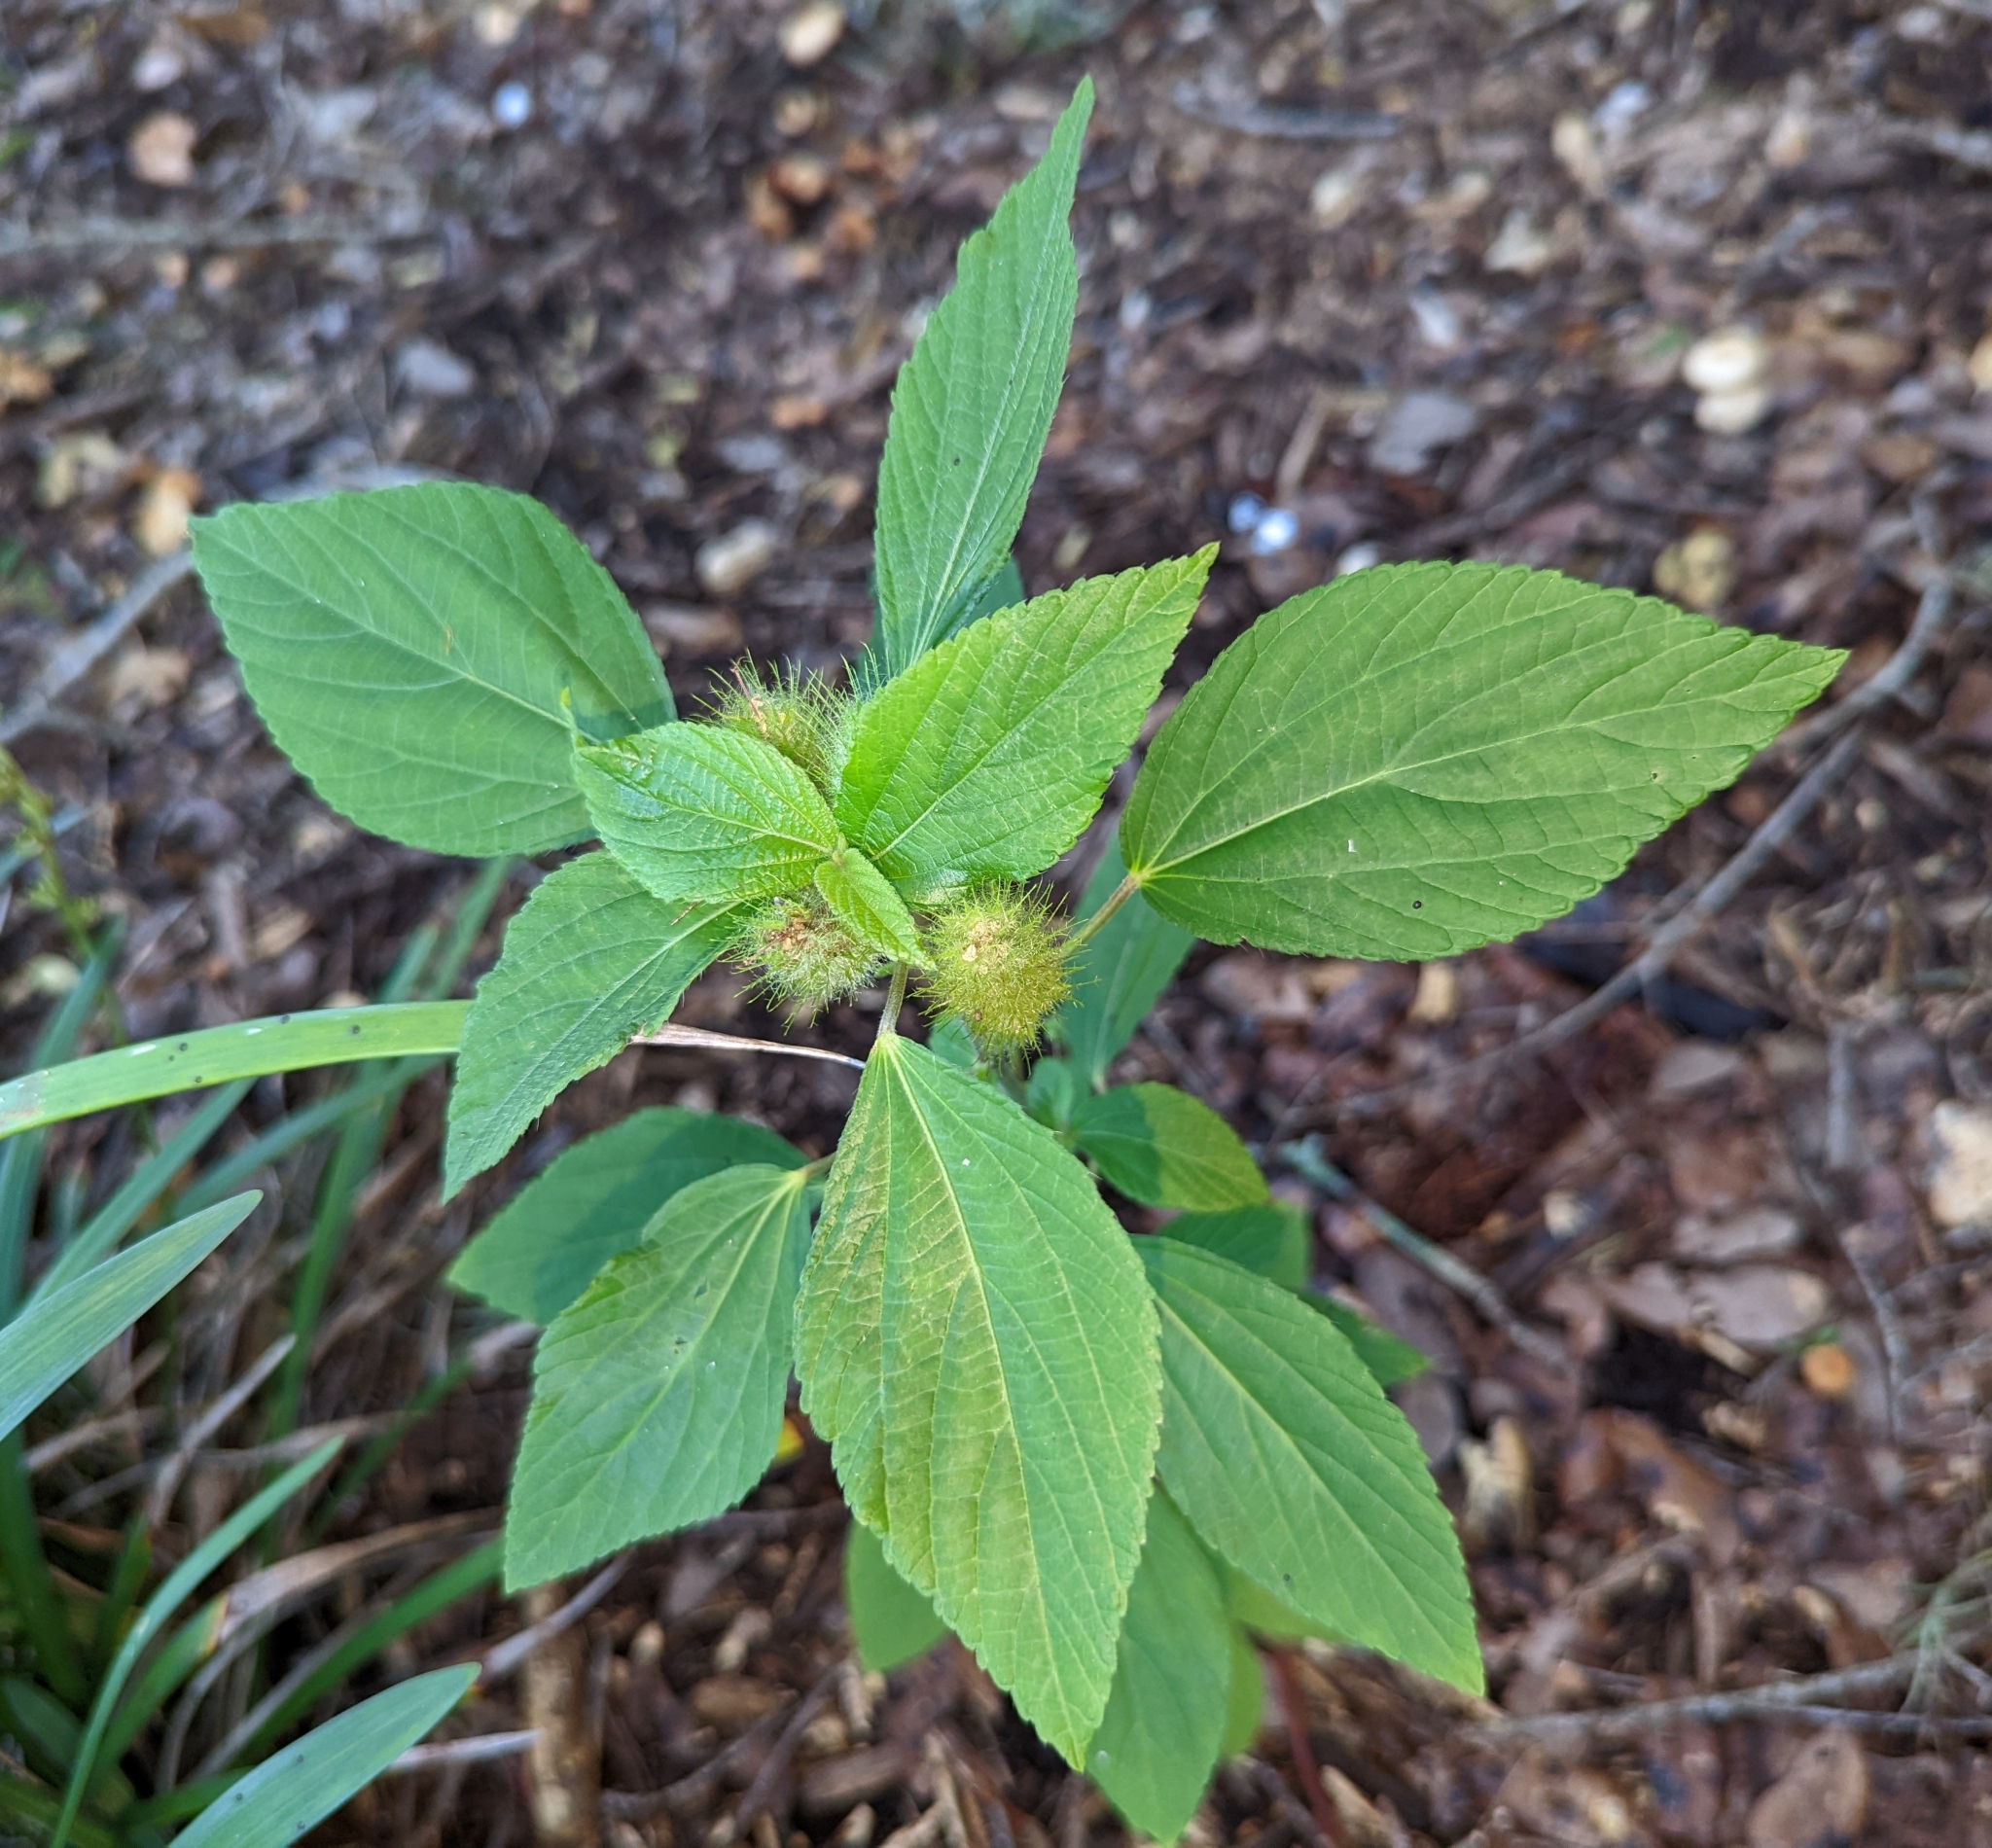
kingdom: Plantae
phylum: Tracheophyta
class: Magnoliopsida
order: Malpighiales
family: Euphorbiaceae
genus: Acalypha
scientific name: Acalypha arvensis
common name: Field copperleaf
